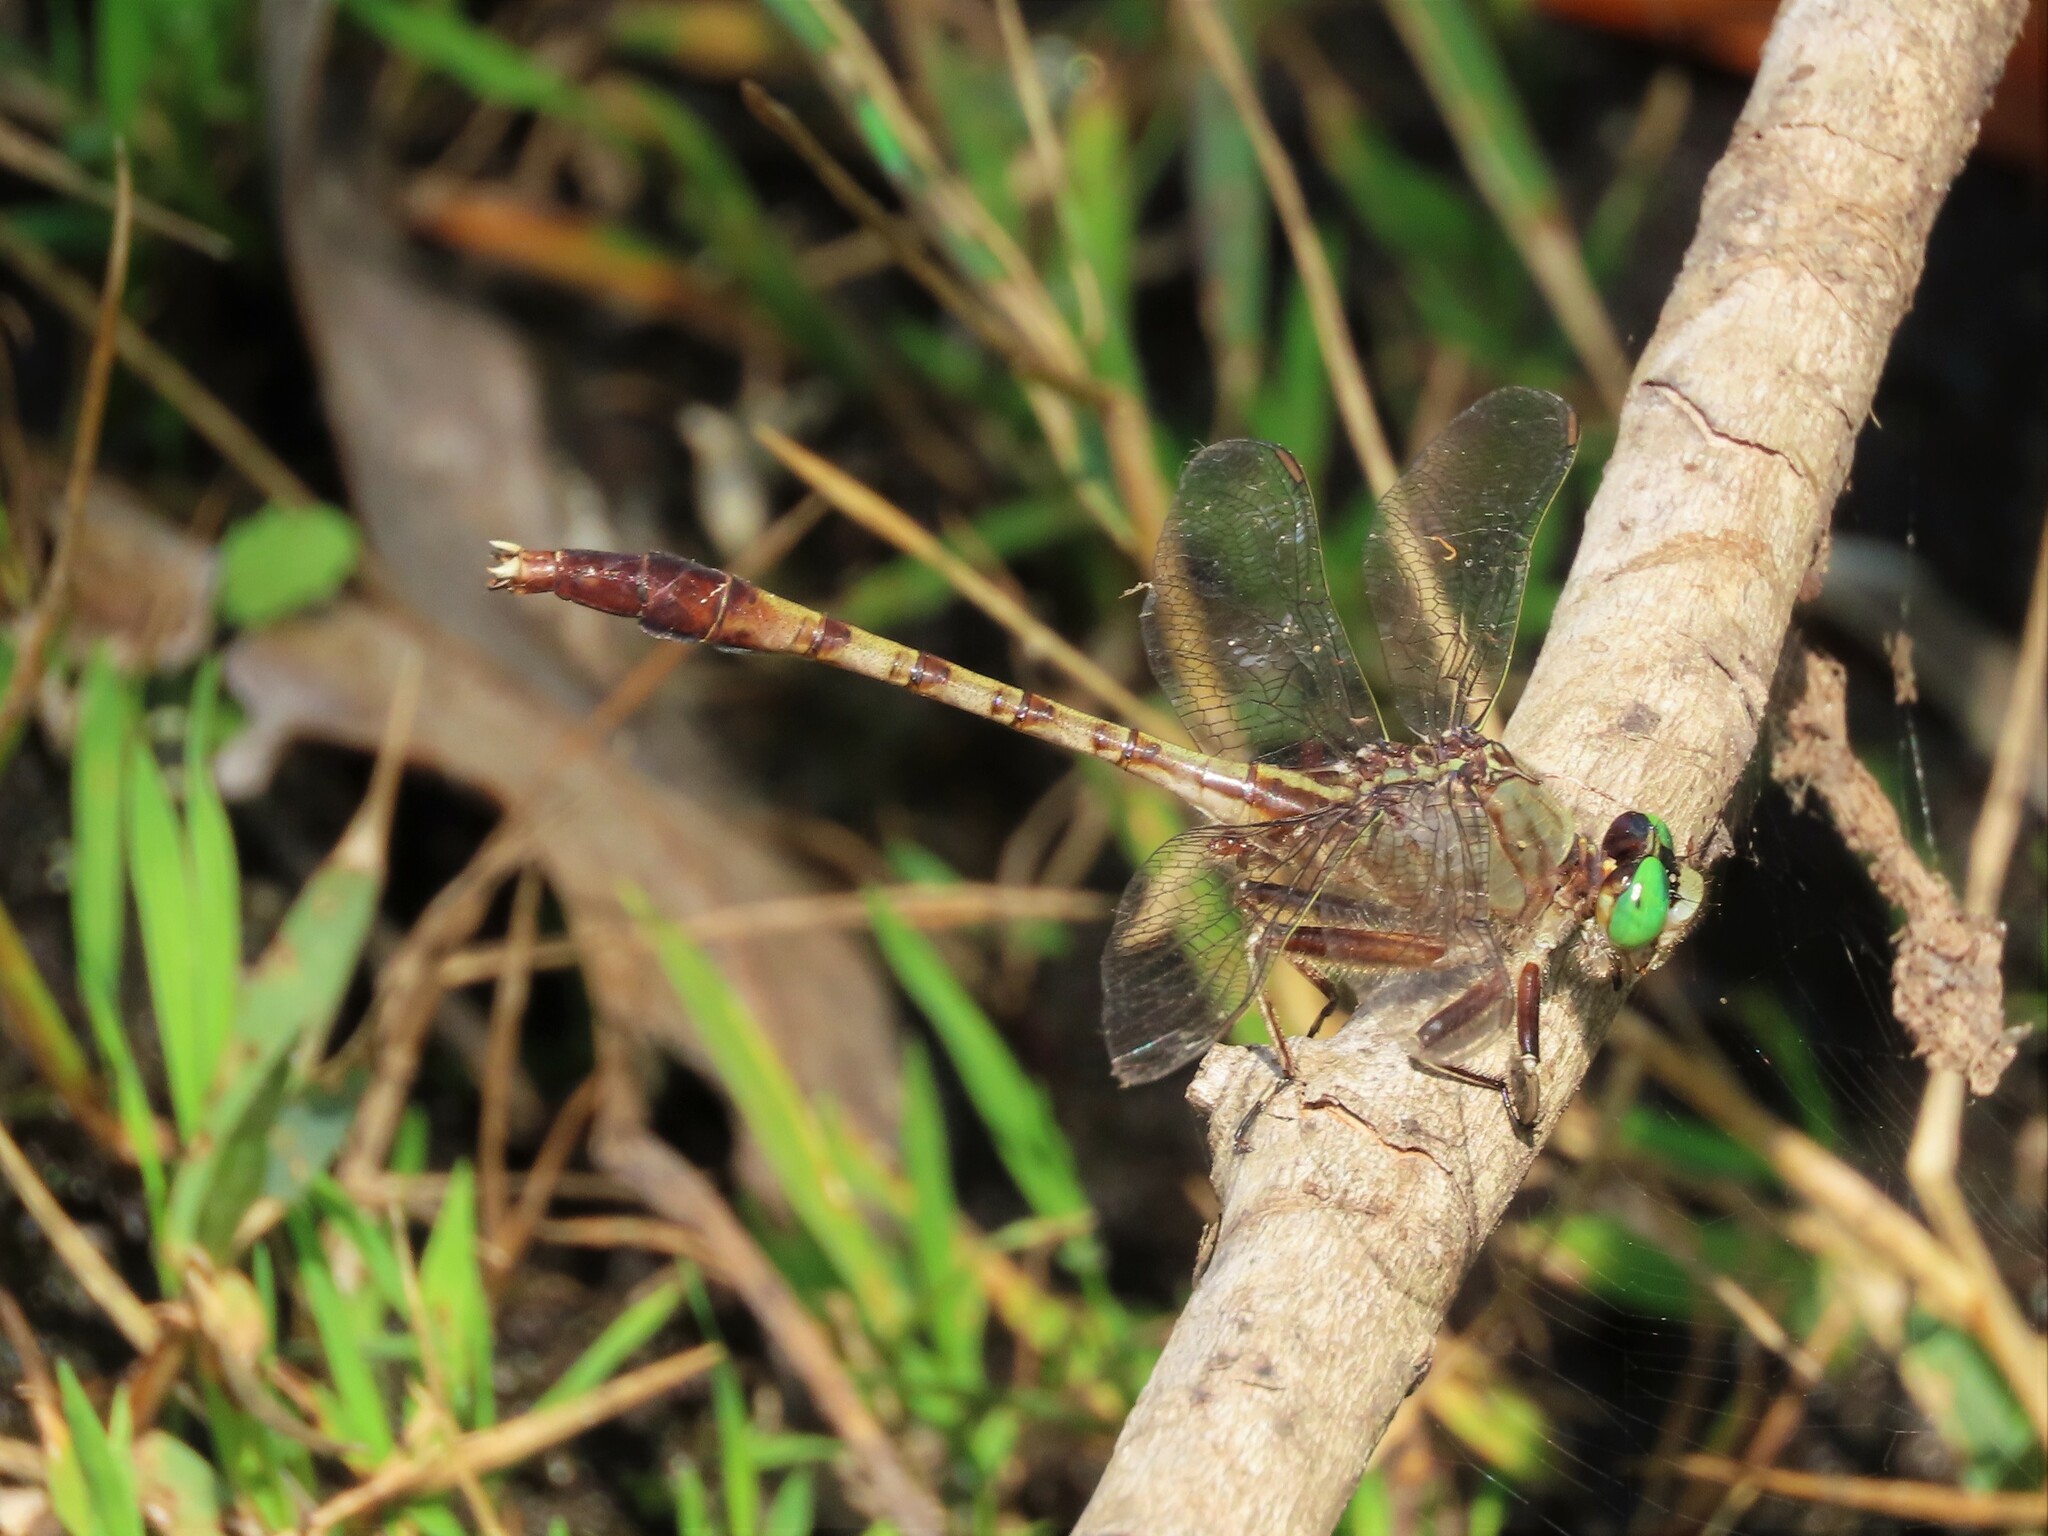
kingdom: Animalia
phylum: Arthropoda
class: Insecta
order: Odonata
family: Gomphidae
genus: Arigomphus
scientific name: Arigomphus pallidus
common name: Gray-green clubtail
